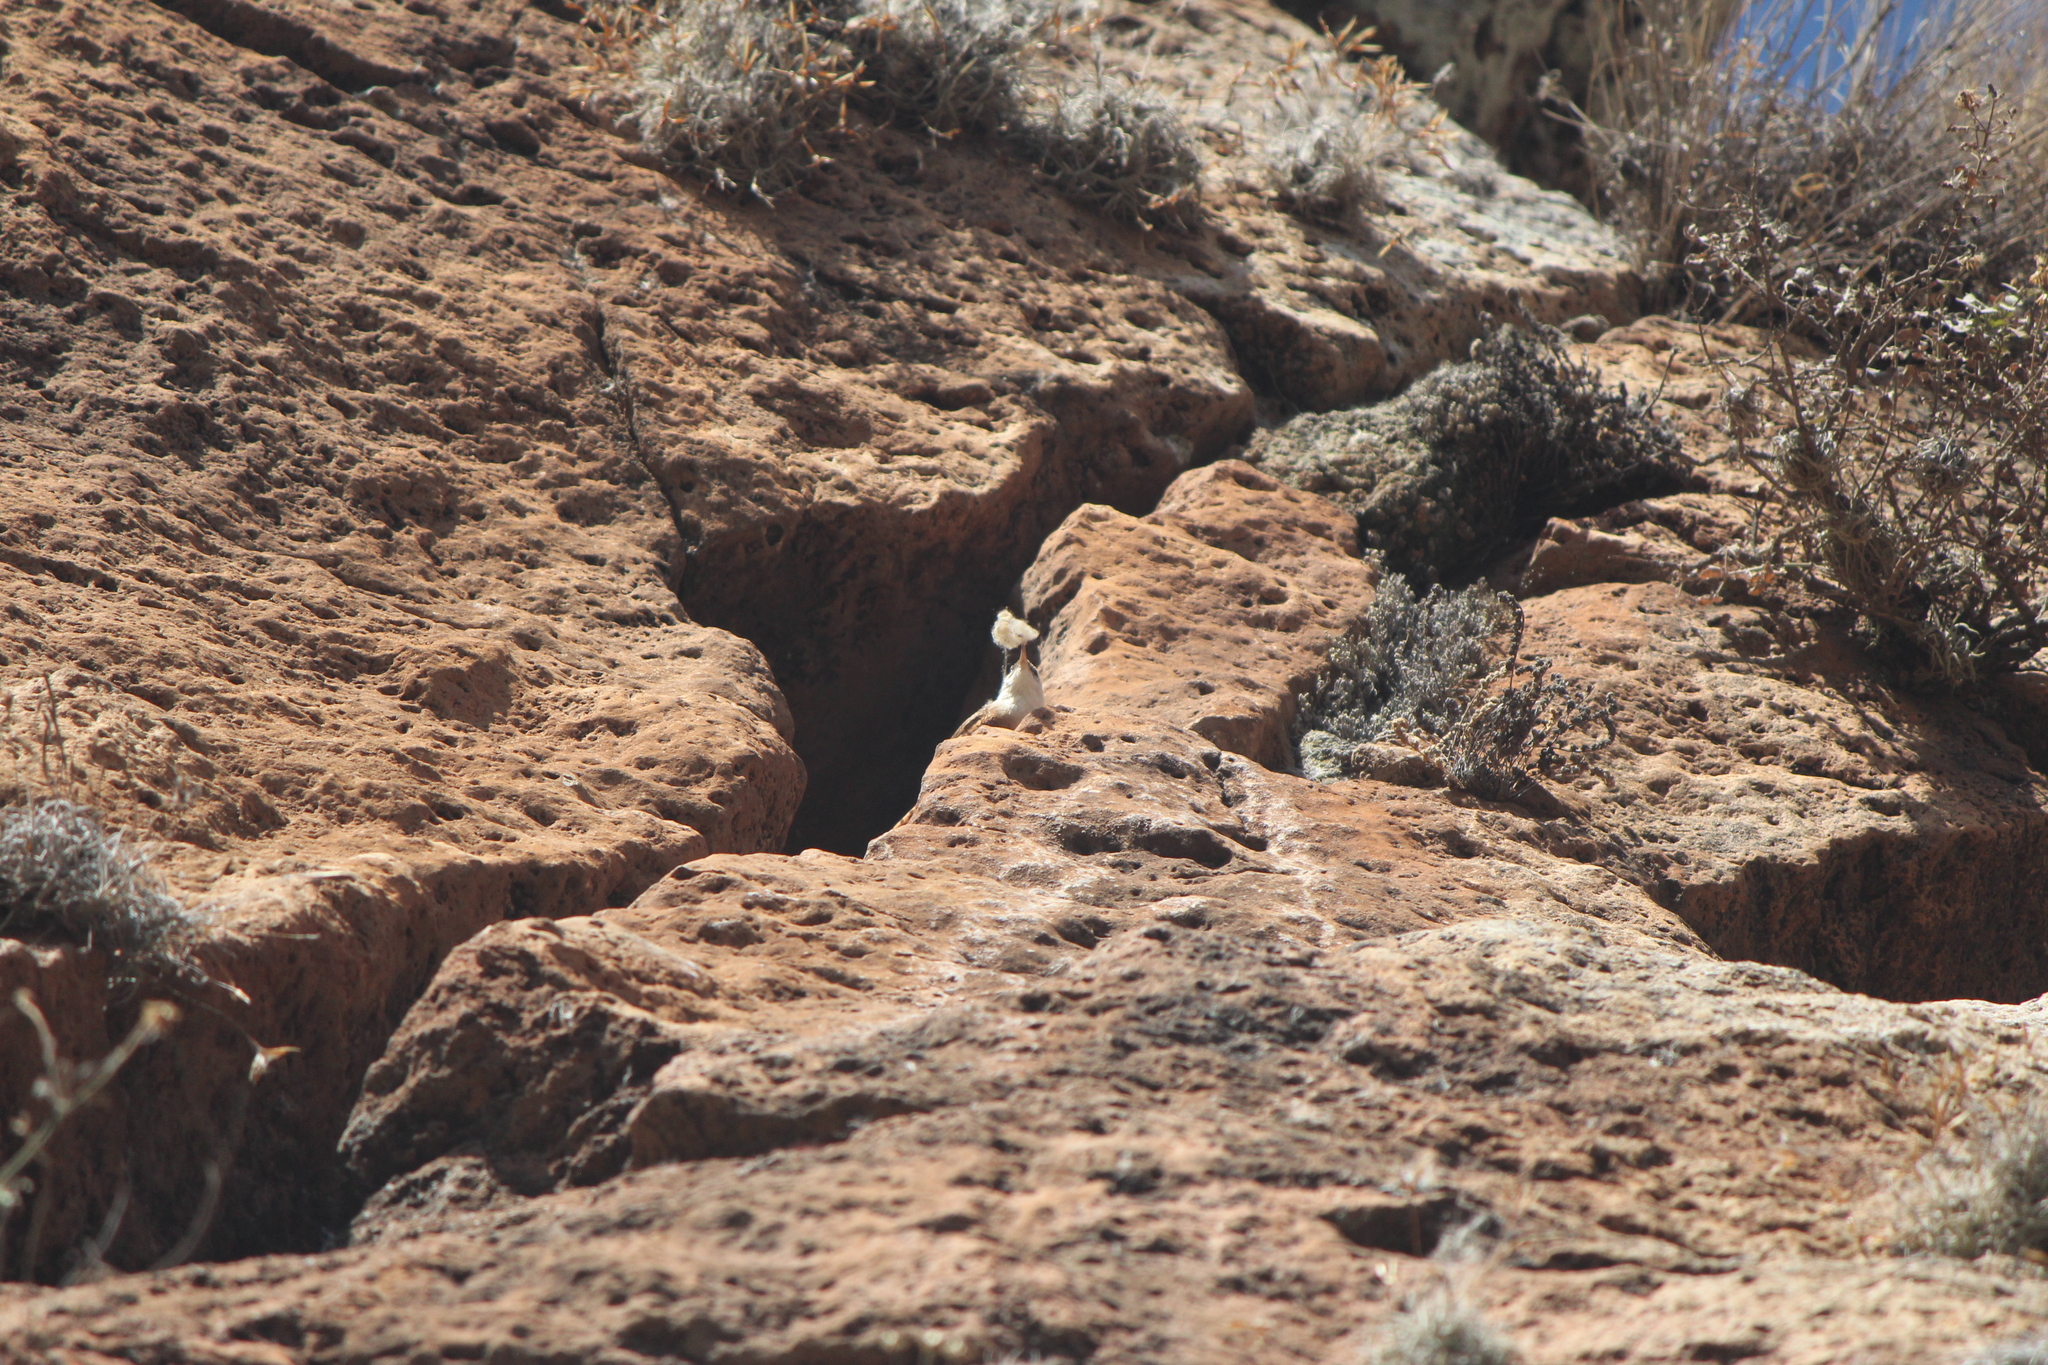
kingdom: Animalia
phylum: Chordata
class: Aves
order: Passeriformes
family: Troglodytidae
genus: Catherpes
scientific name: Catherpes mexicanus
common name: Canyon wren
